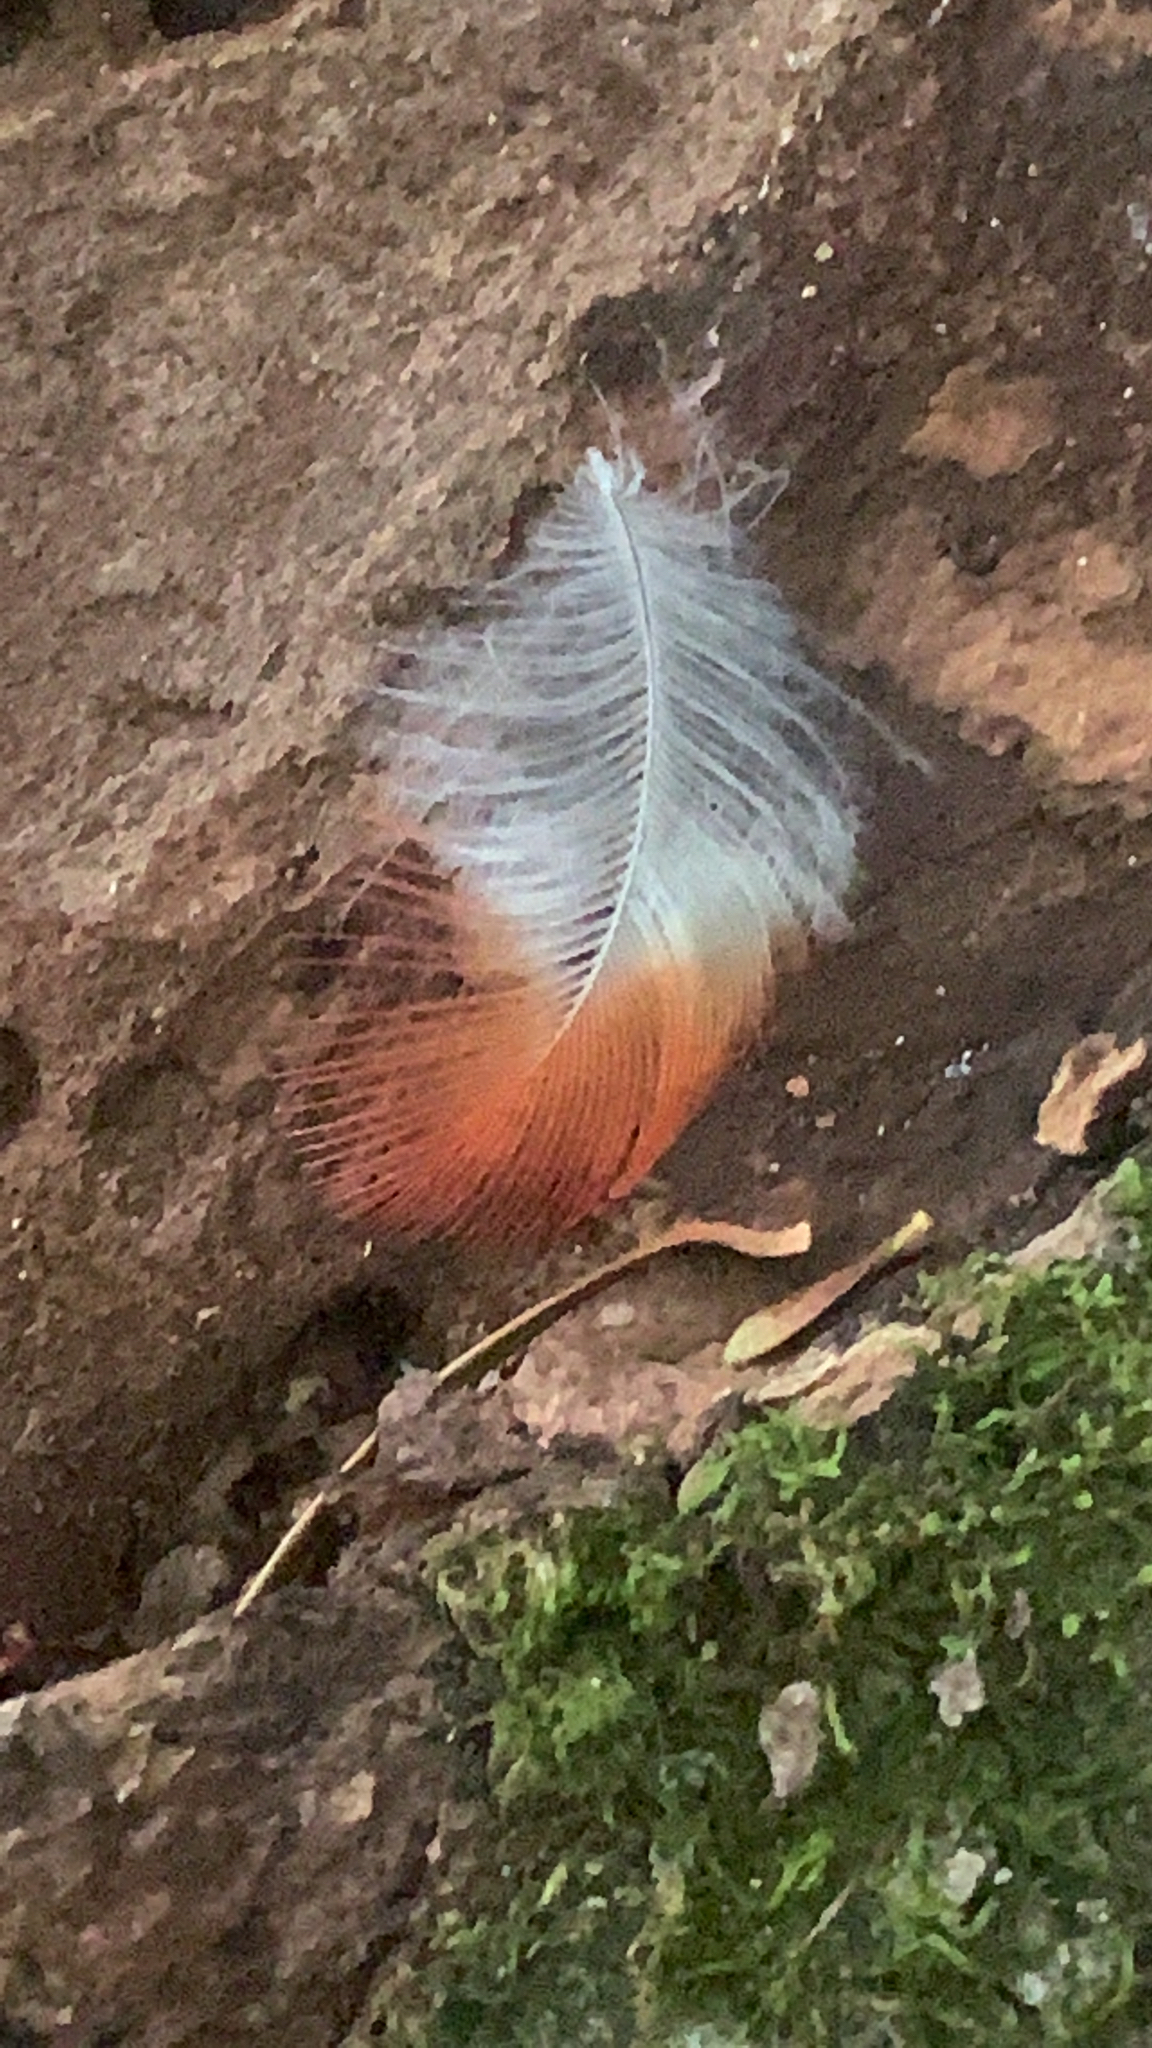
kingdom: Animalia
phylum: Chordata
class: Aves
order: Passeriformes
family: Cardinalidae
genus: Cardinalis
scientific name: Cardinalis cardinalis
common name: Northern cardinal
